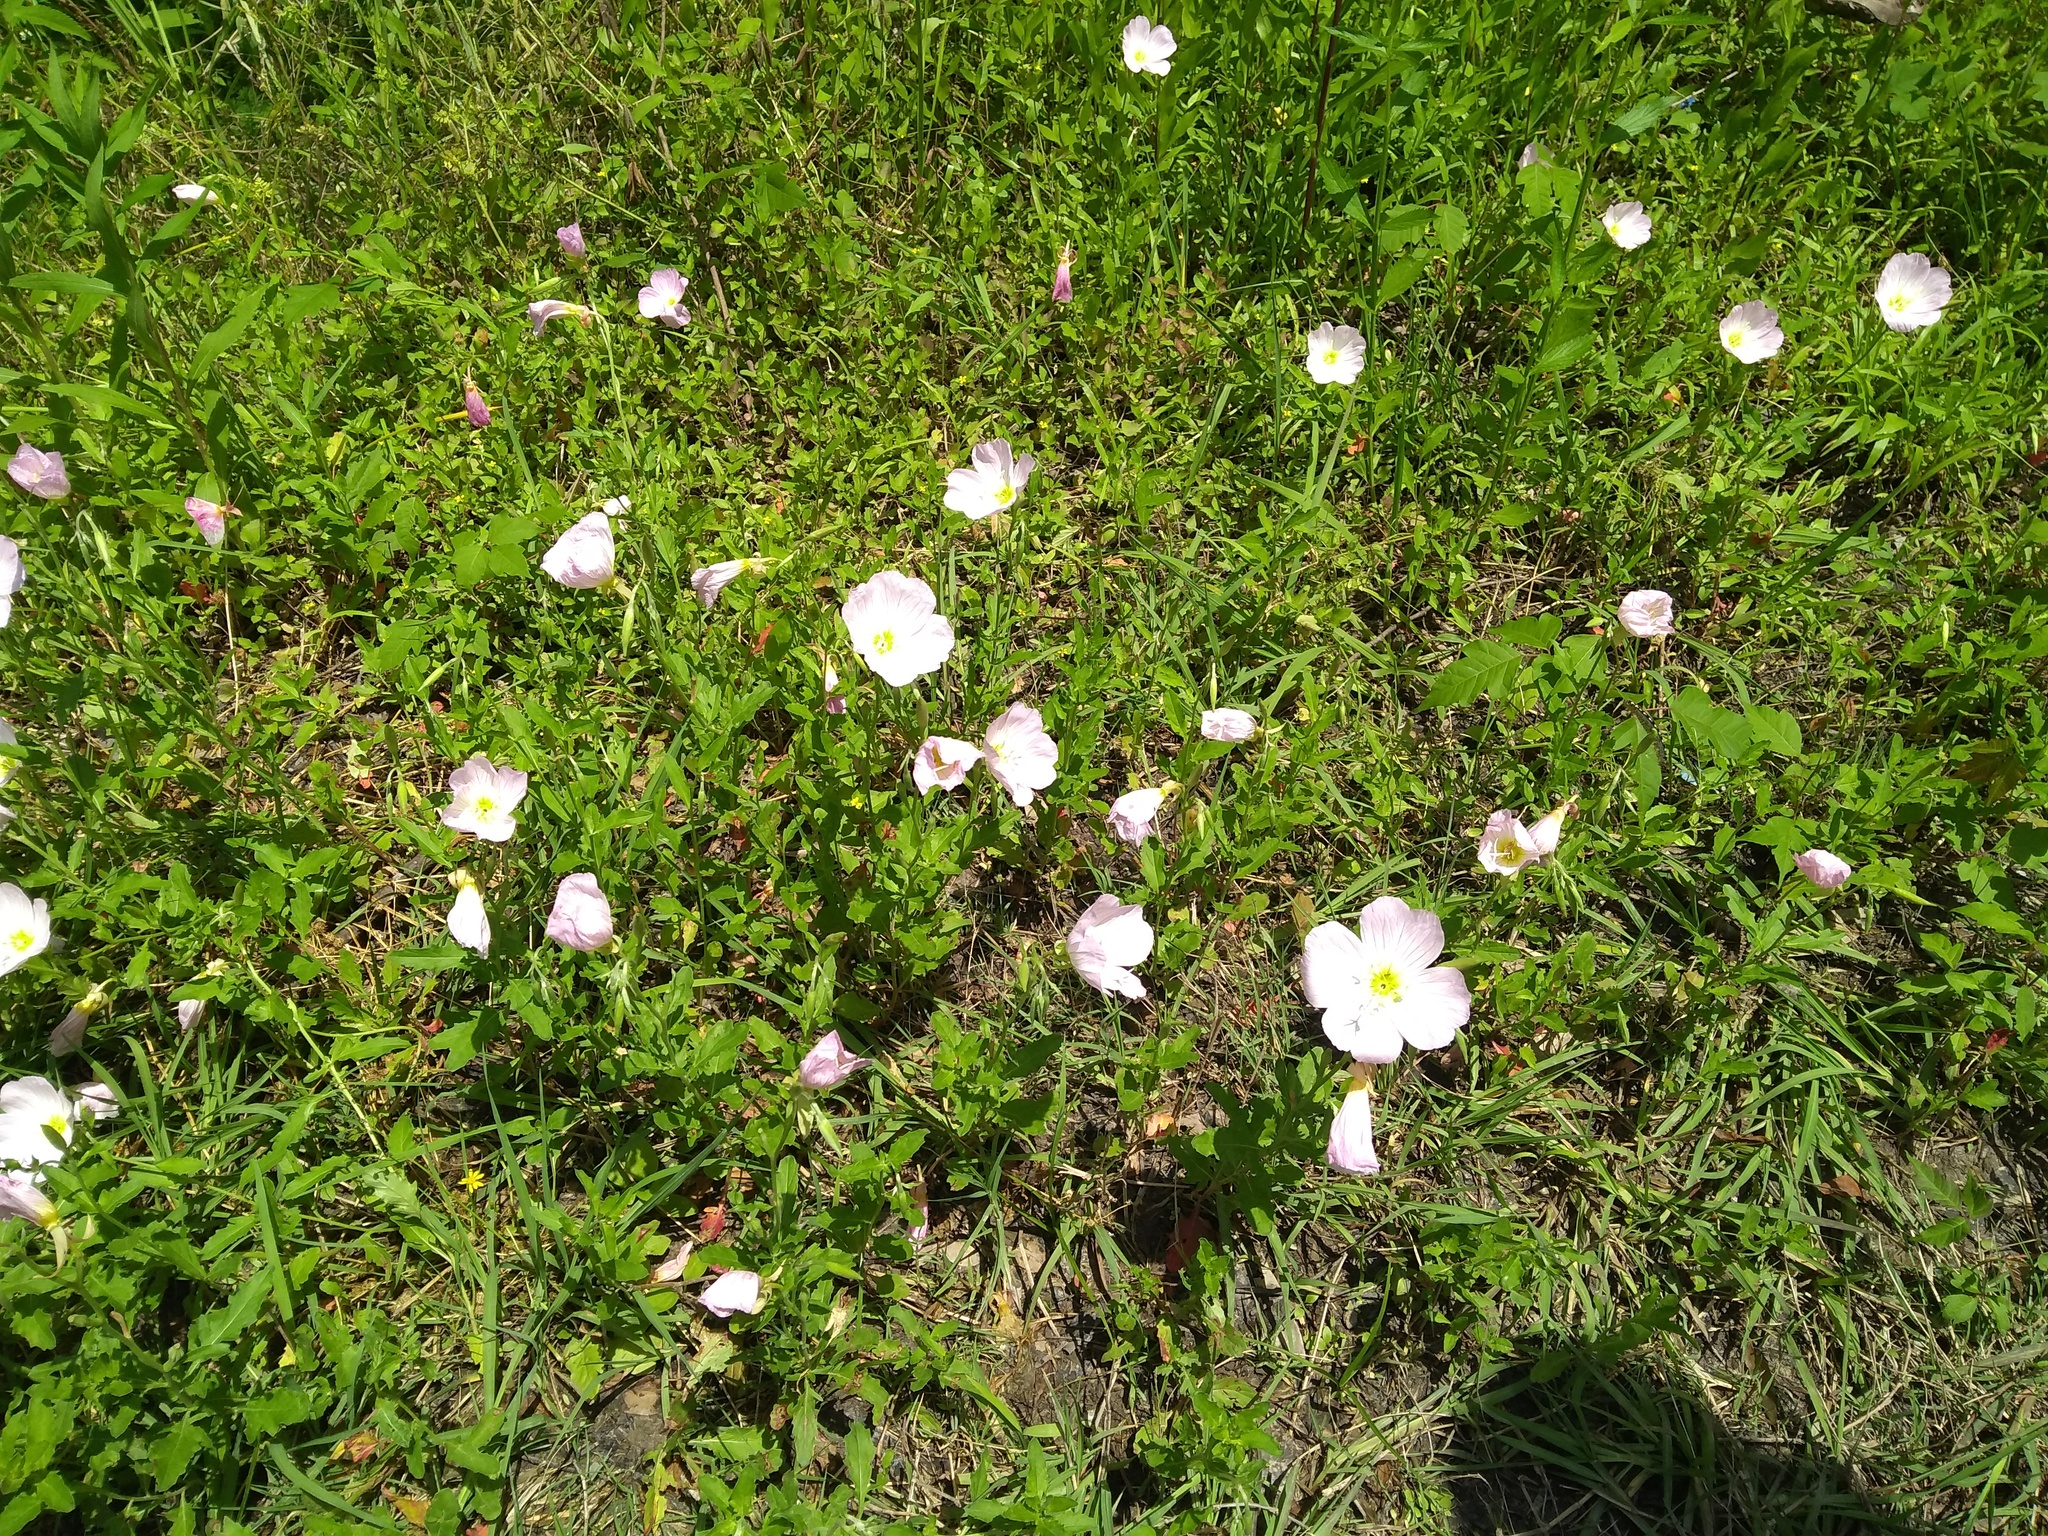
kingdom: Plantae
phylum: Tracheophyta
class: Magnoliopsida
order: Myrtales
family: Onagraceae
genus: Oenothera
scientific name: Oenothera speciosa
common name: White evening-primrose
